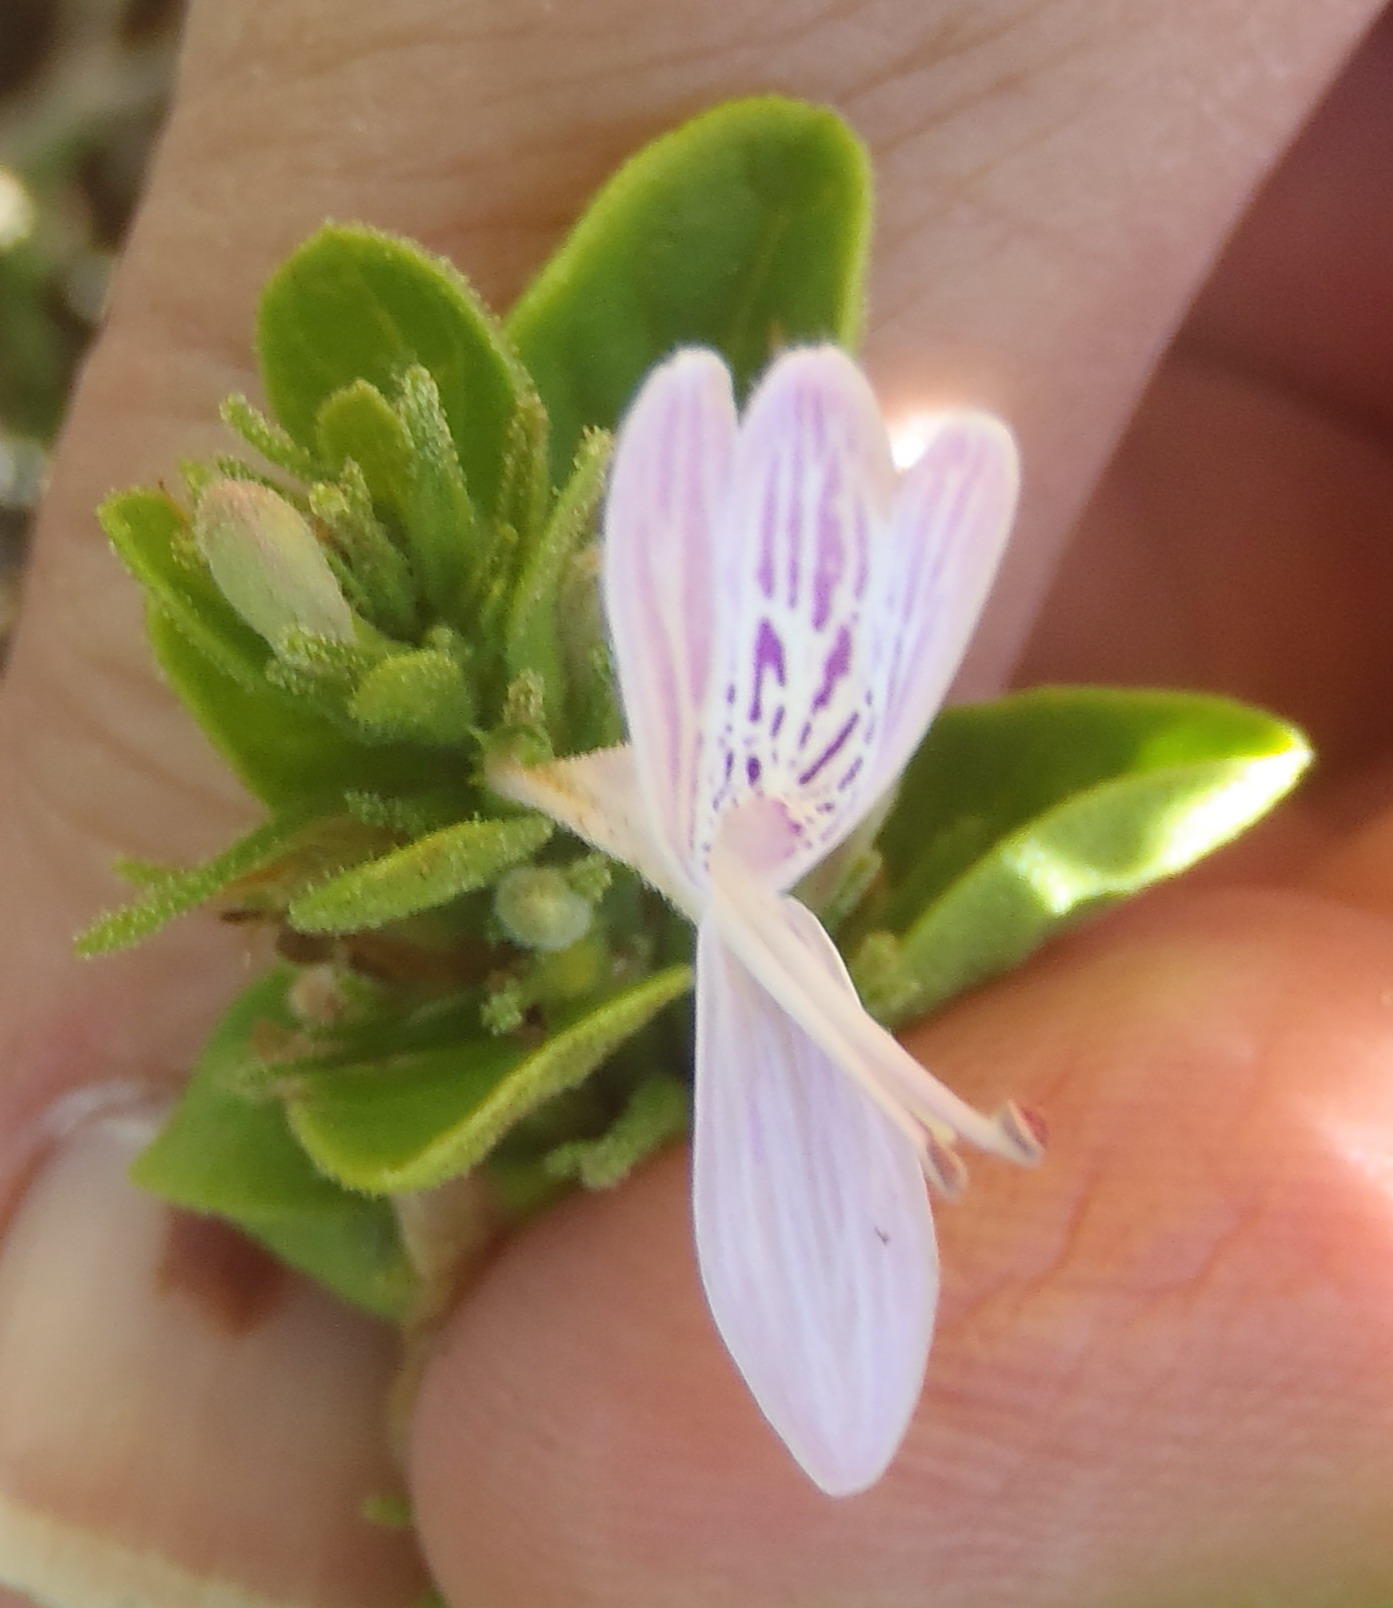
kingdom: Plantae
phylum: Tracheophyta
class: Magnoliopsida
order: Lamiales
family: Acanthaceae
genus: Hypoestes
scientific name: Hypoestes aristata
